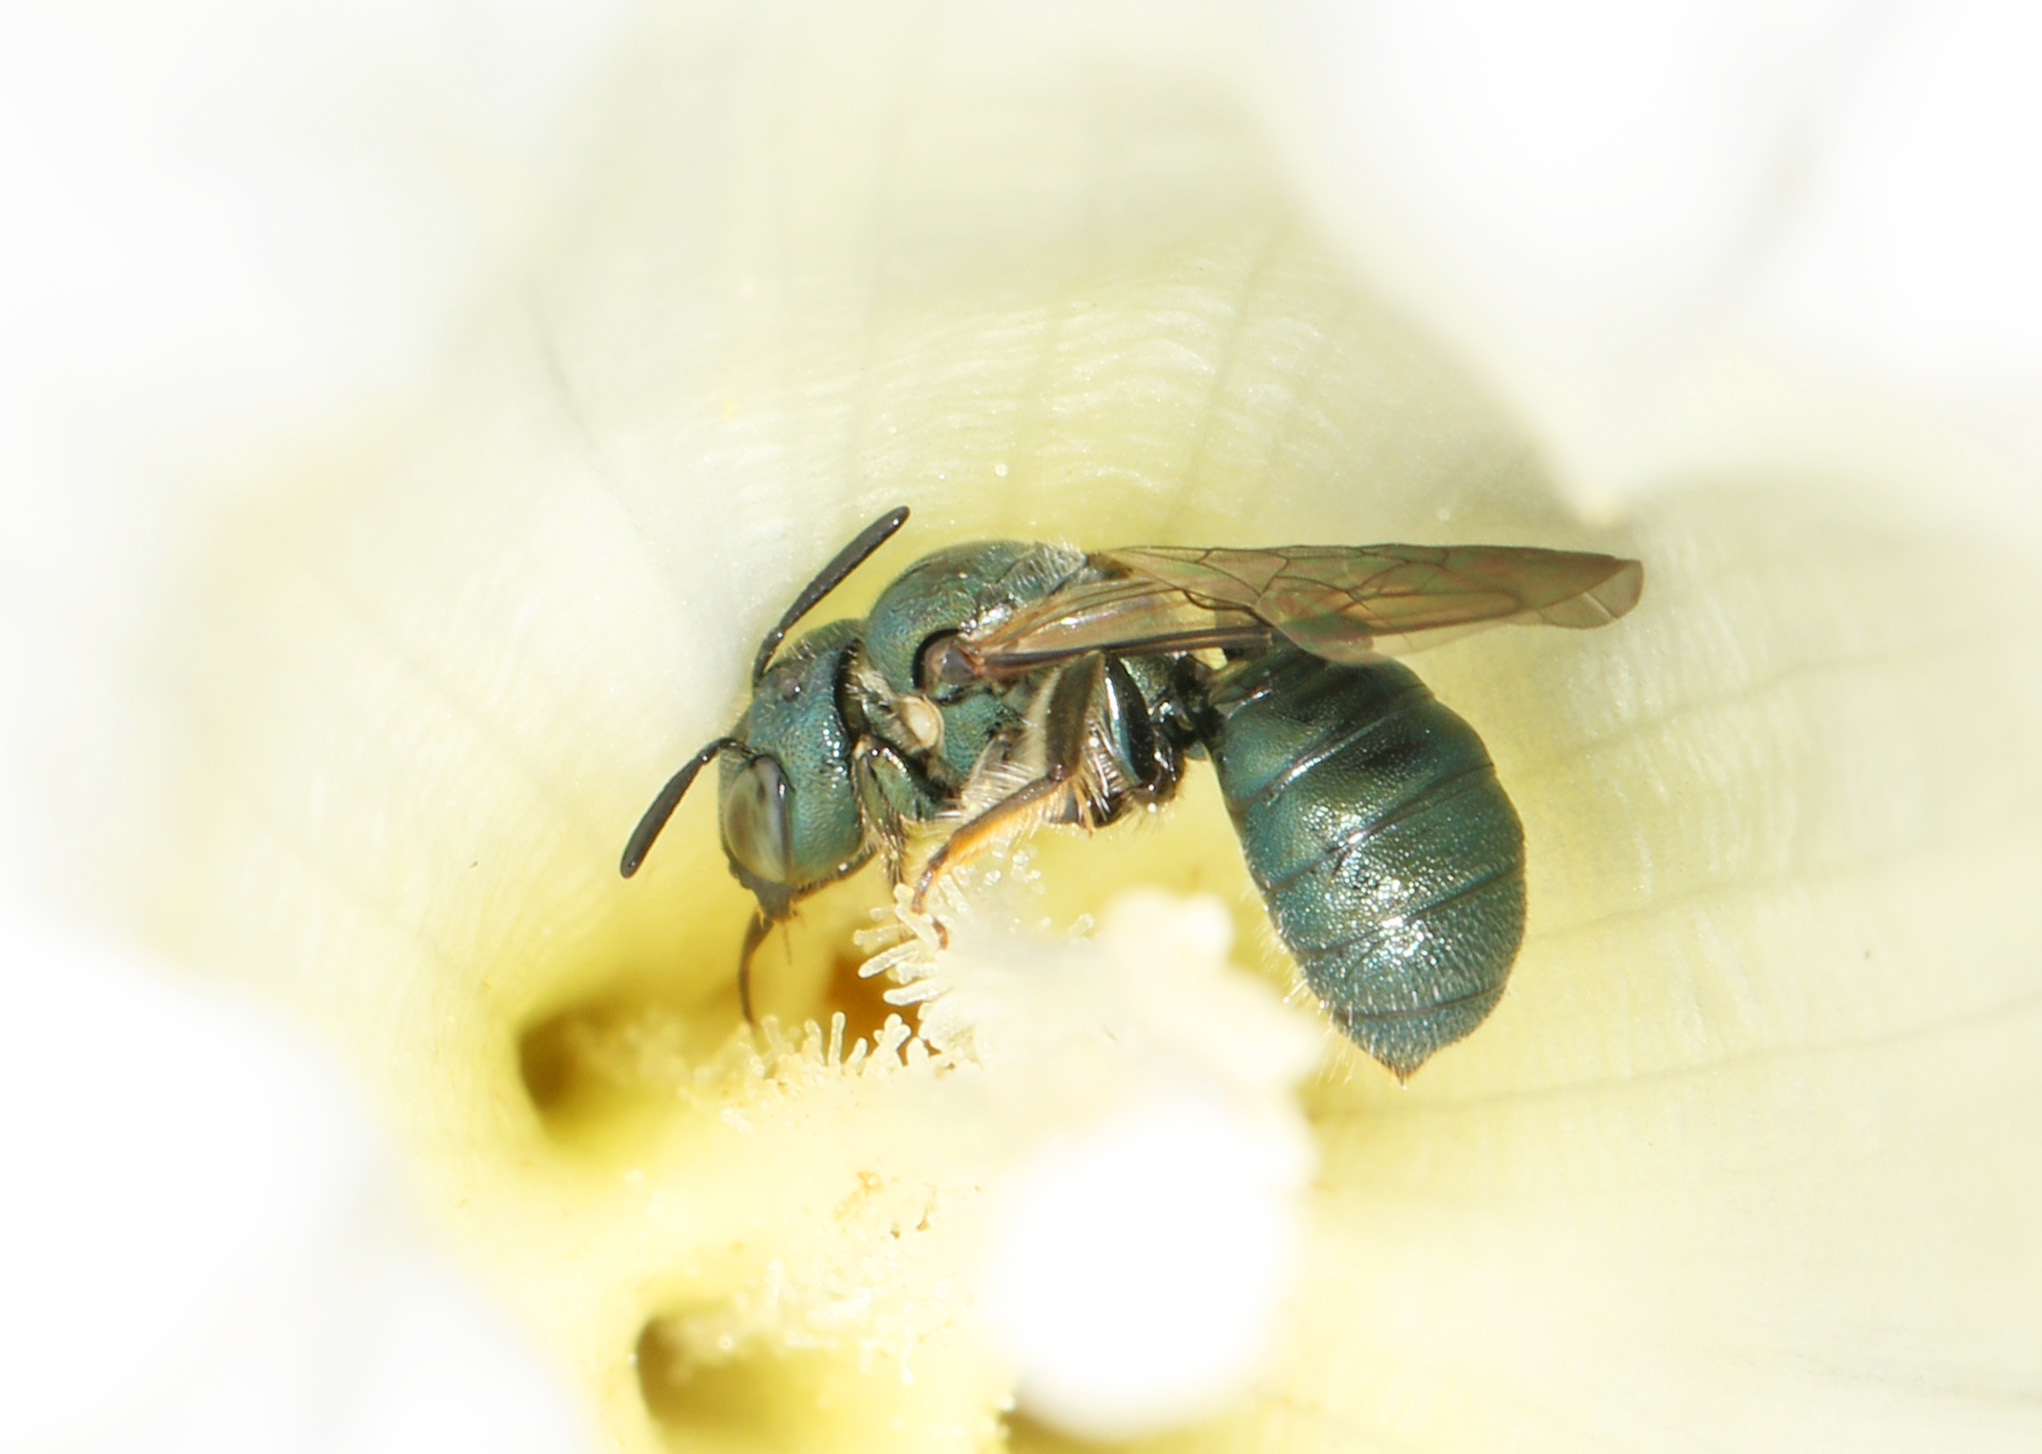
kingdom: Animalia
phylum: Arthropoda
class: Insecta
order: Hymenoptera
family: Apidae
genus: Zadontomerus
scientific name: Zadontomerus
